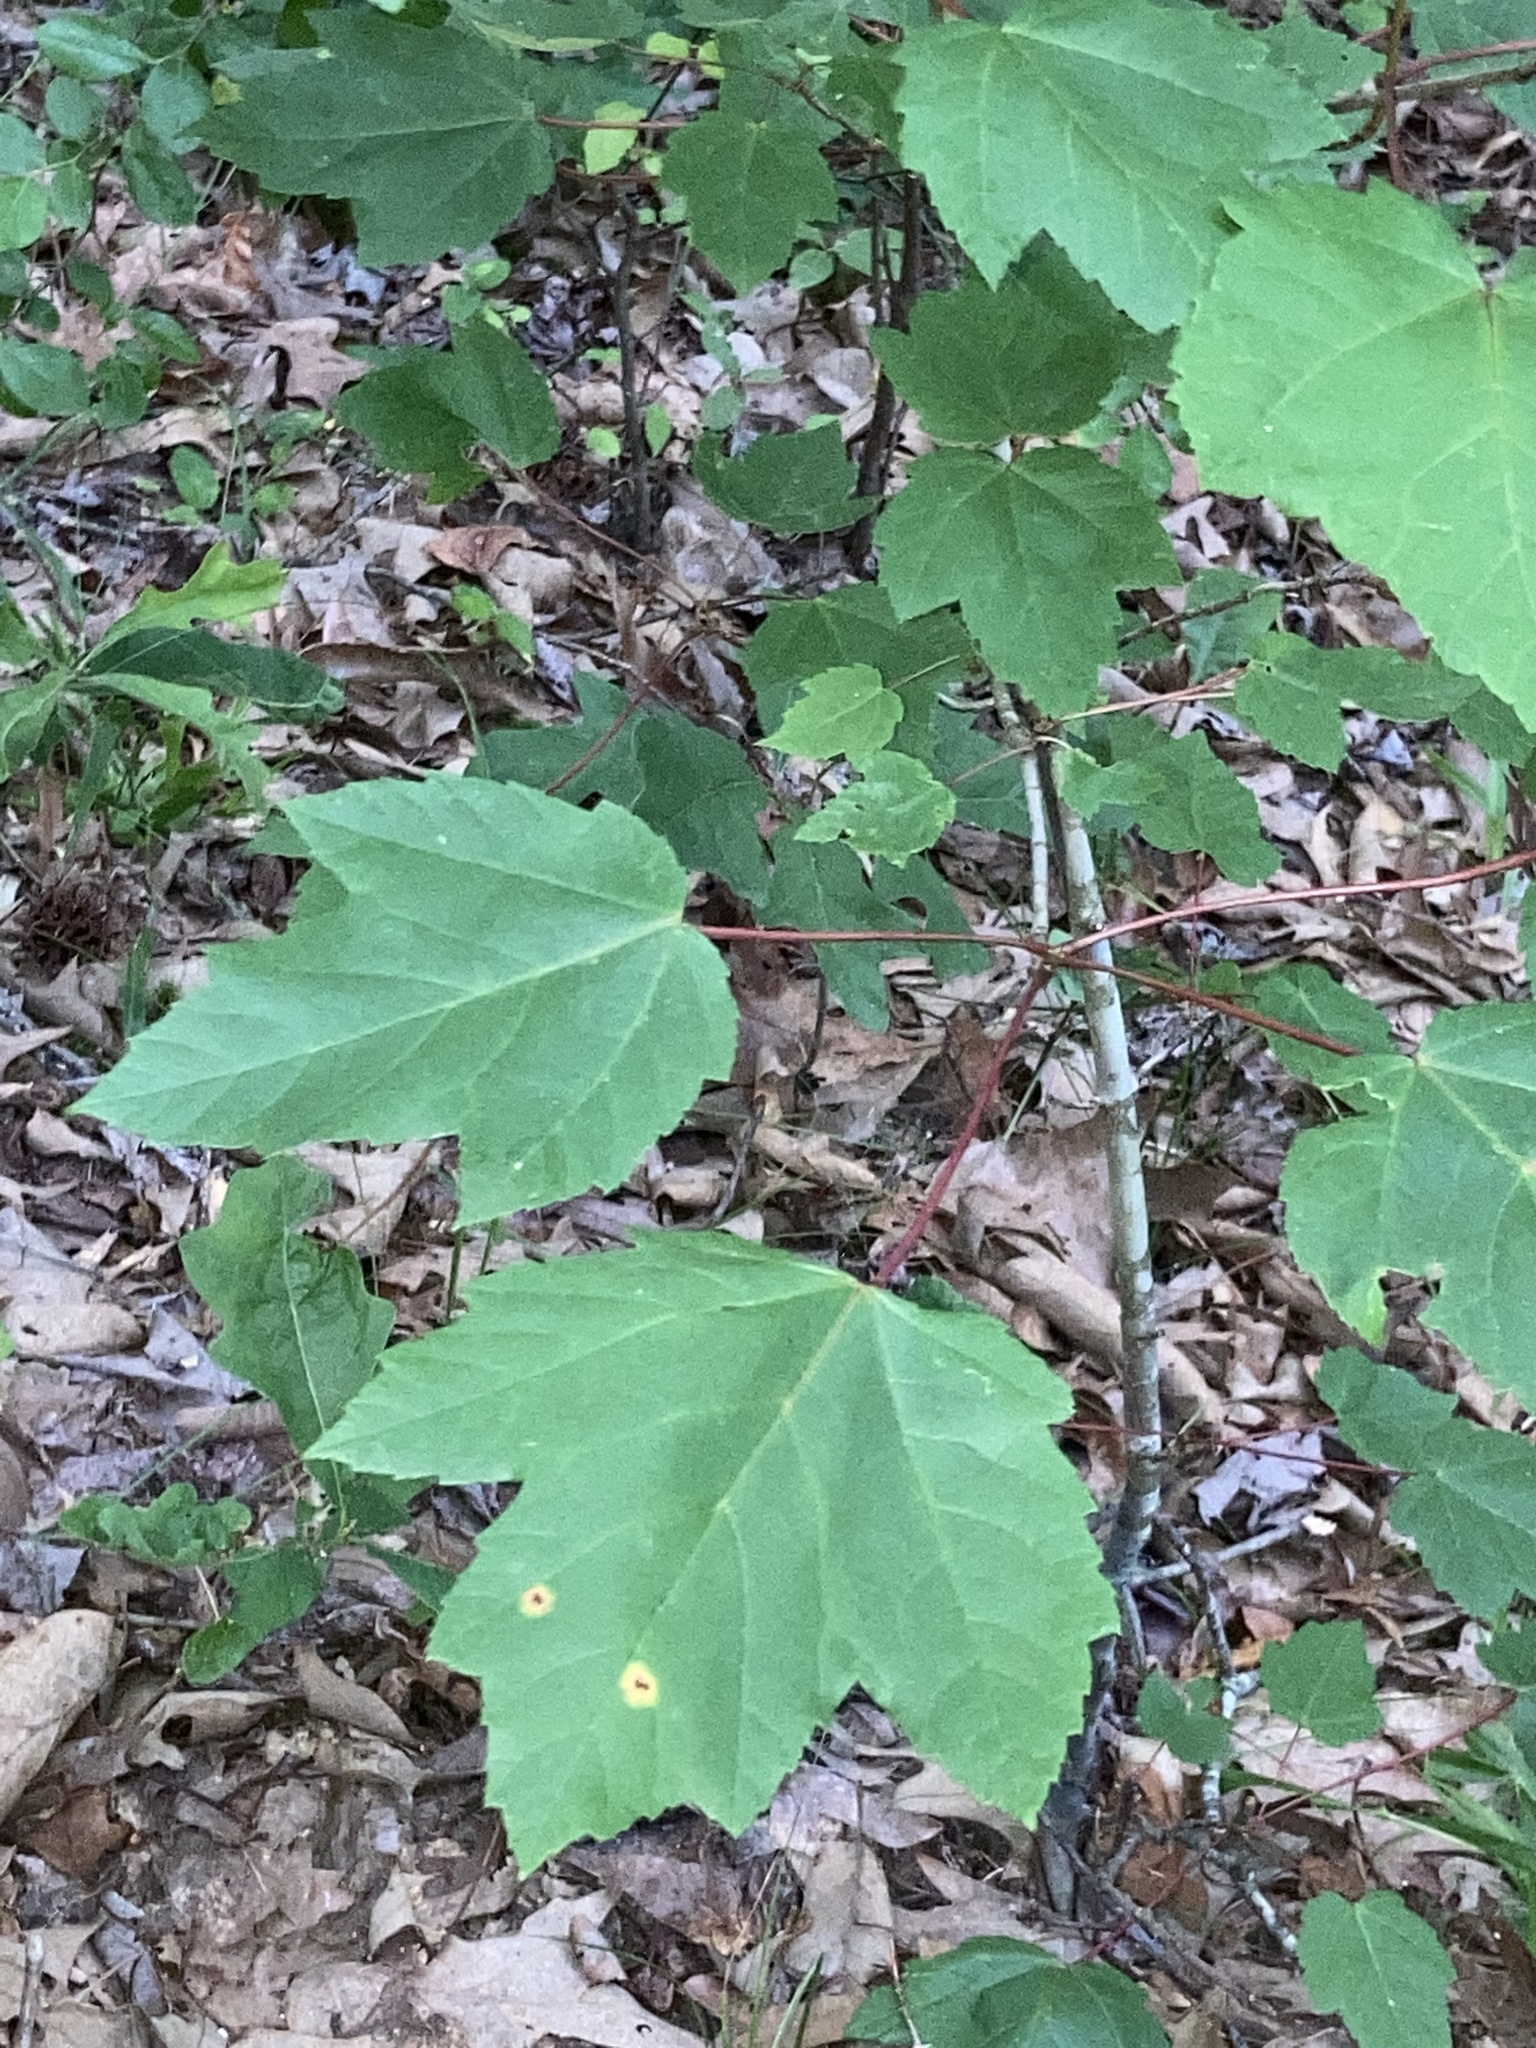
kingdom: Plantae
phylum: Tracheophyta
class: Magnoliopsida
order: Sapindales
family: Sapindaceae
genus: Acer
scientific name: Acer rubrum
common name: Red maple
